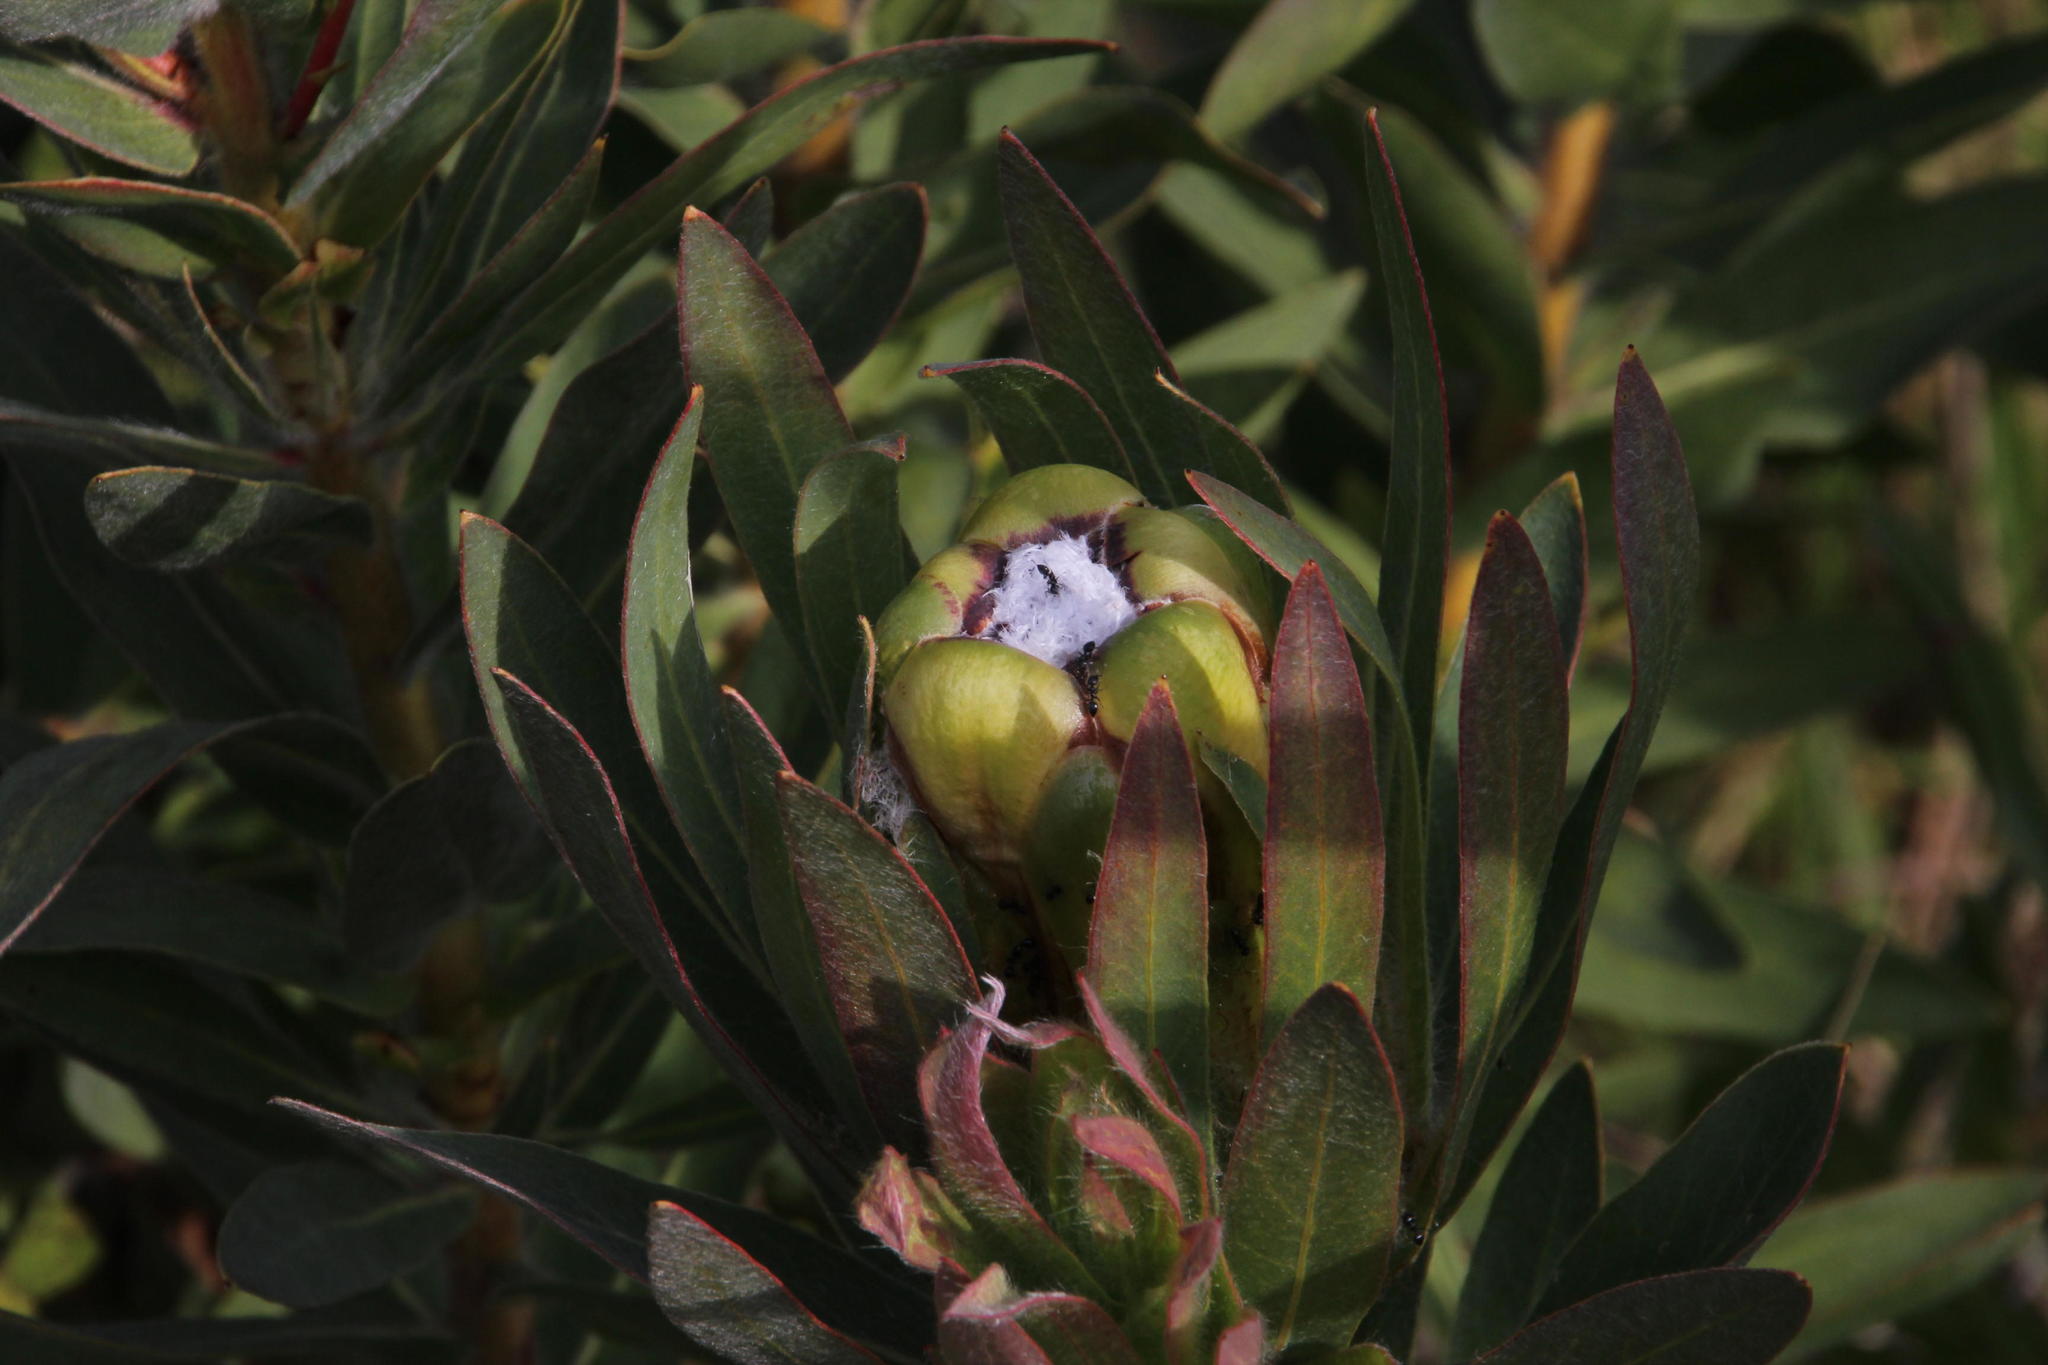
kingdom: Plantae
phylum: Tracheophyta
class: Magnoliopsida
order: Proteales
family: Proteaceae
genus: Protea
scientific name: Protea coronata
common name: Green sugarbush
